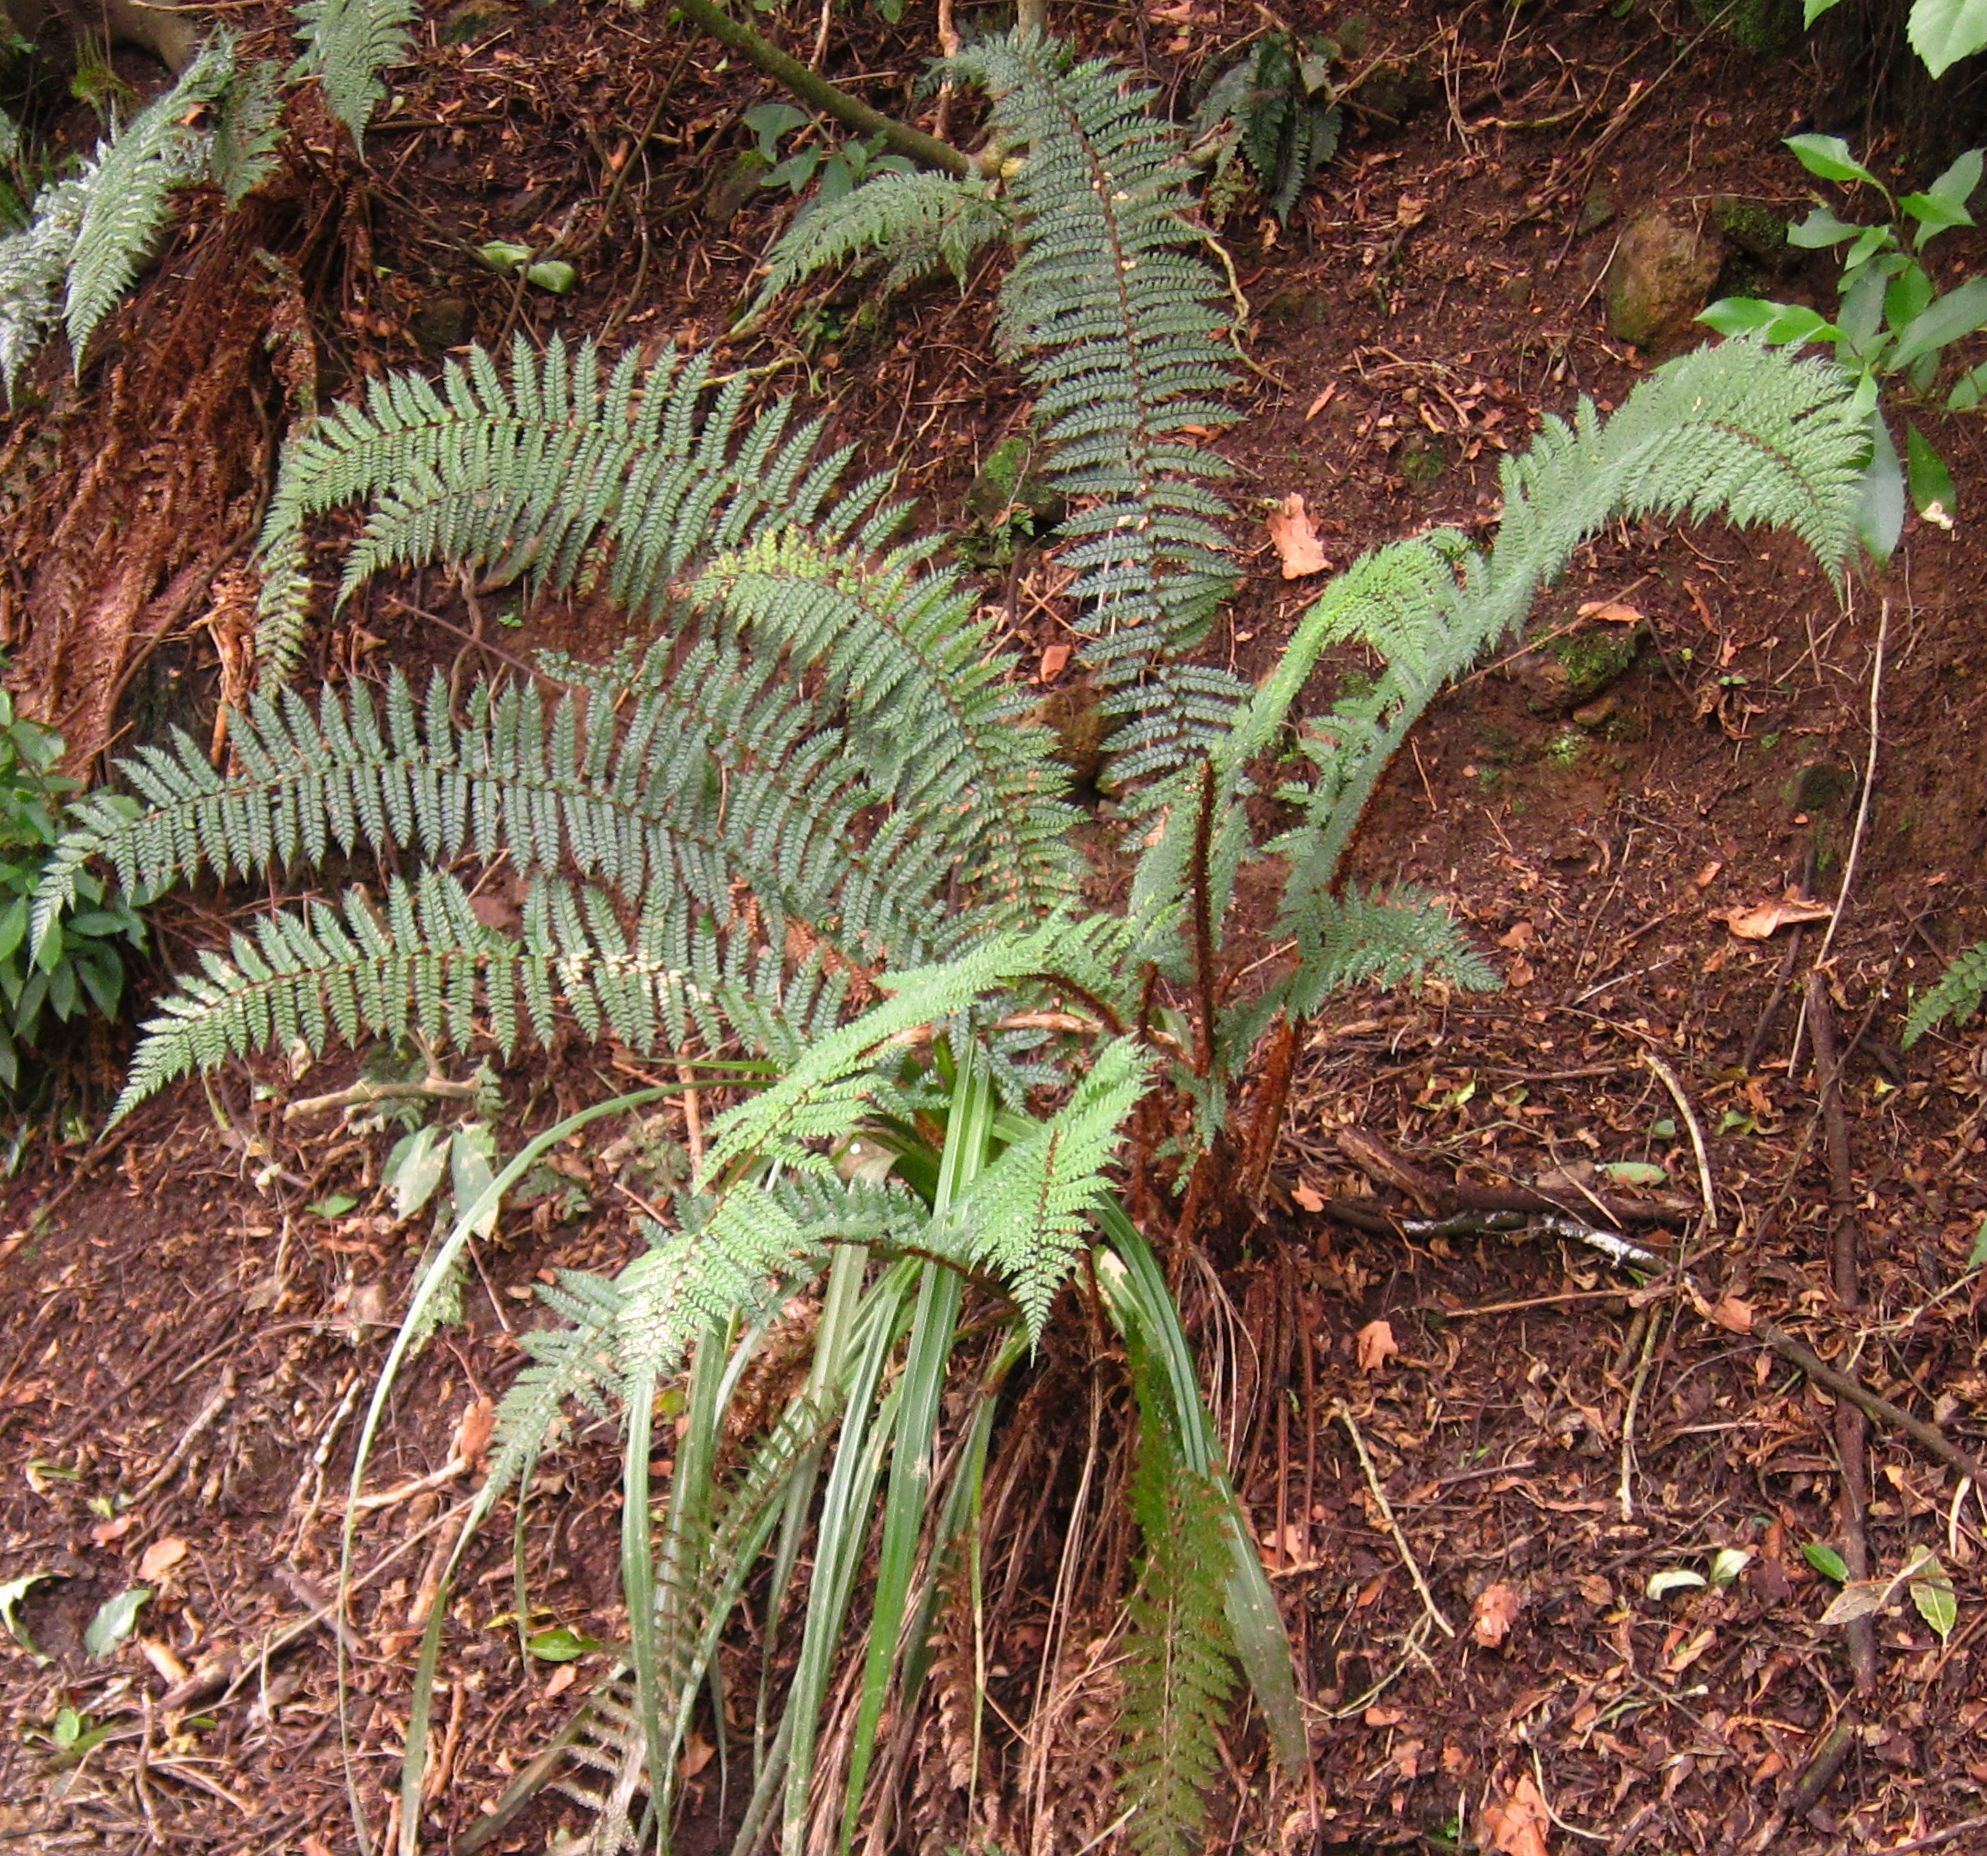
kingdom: Plantae
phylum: Tracheophyta
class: Polypodiopsida
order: Polypodiales
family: Dryopteridaceae
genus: Polystichum
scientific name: Polystichum vestitum
